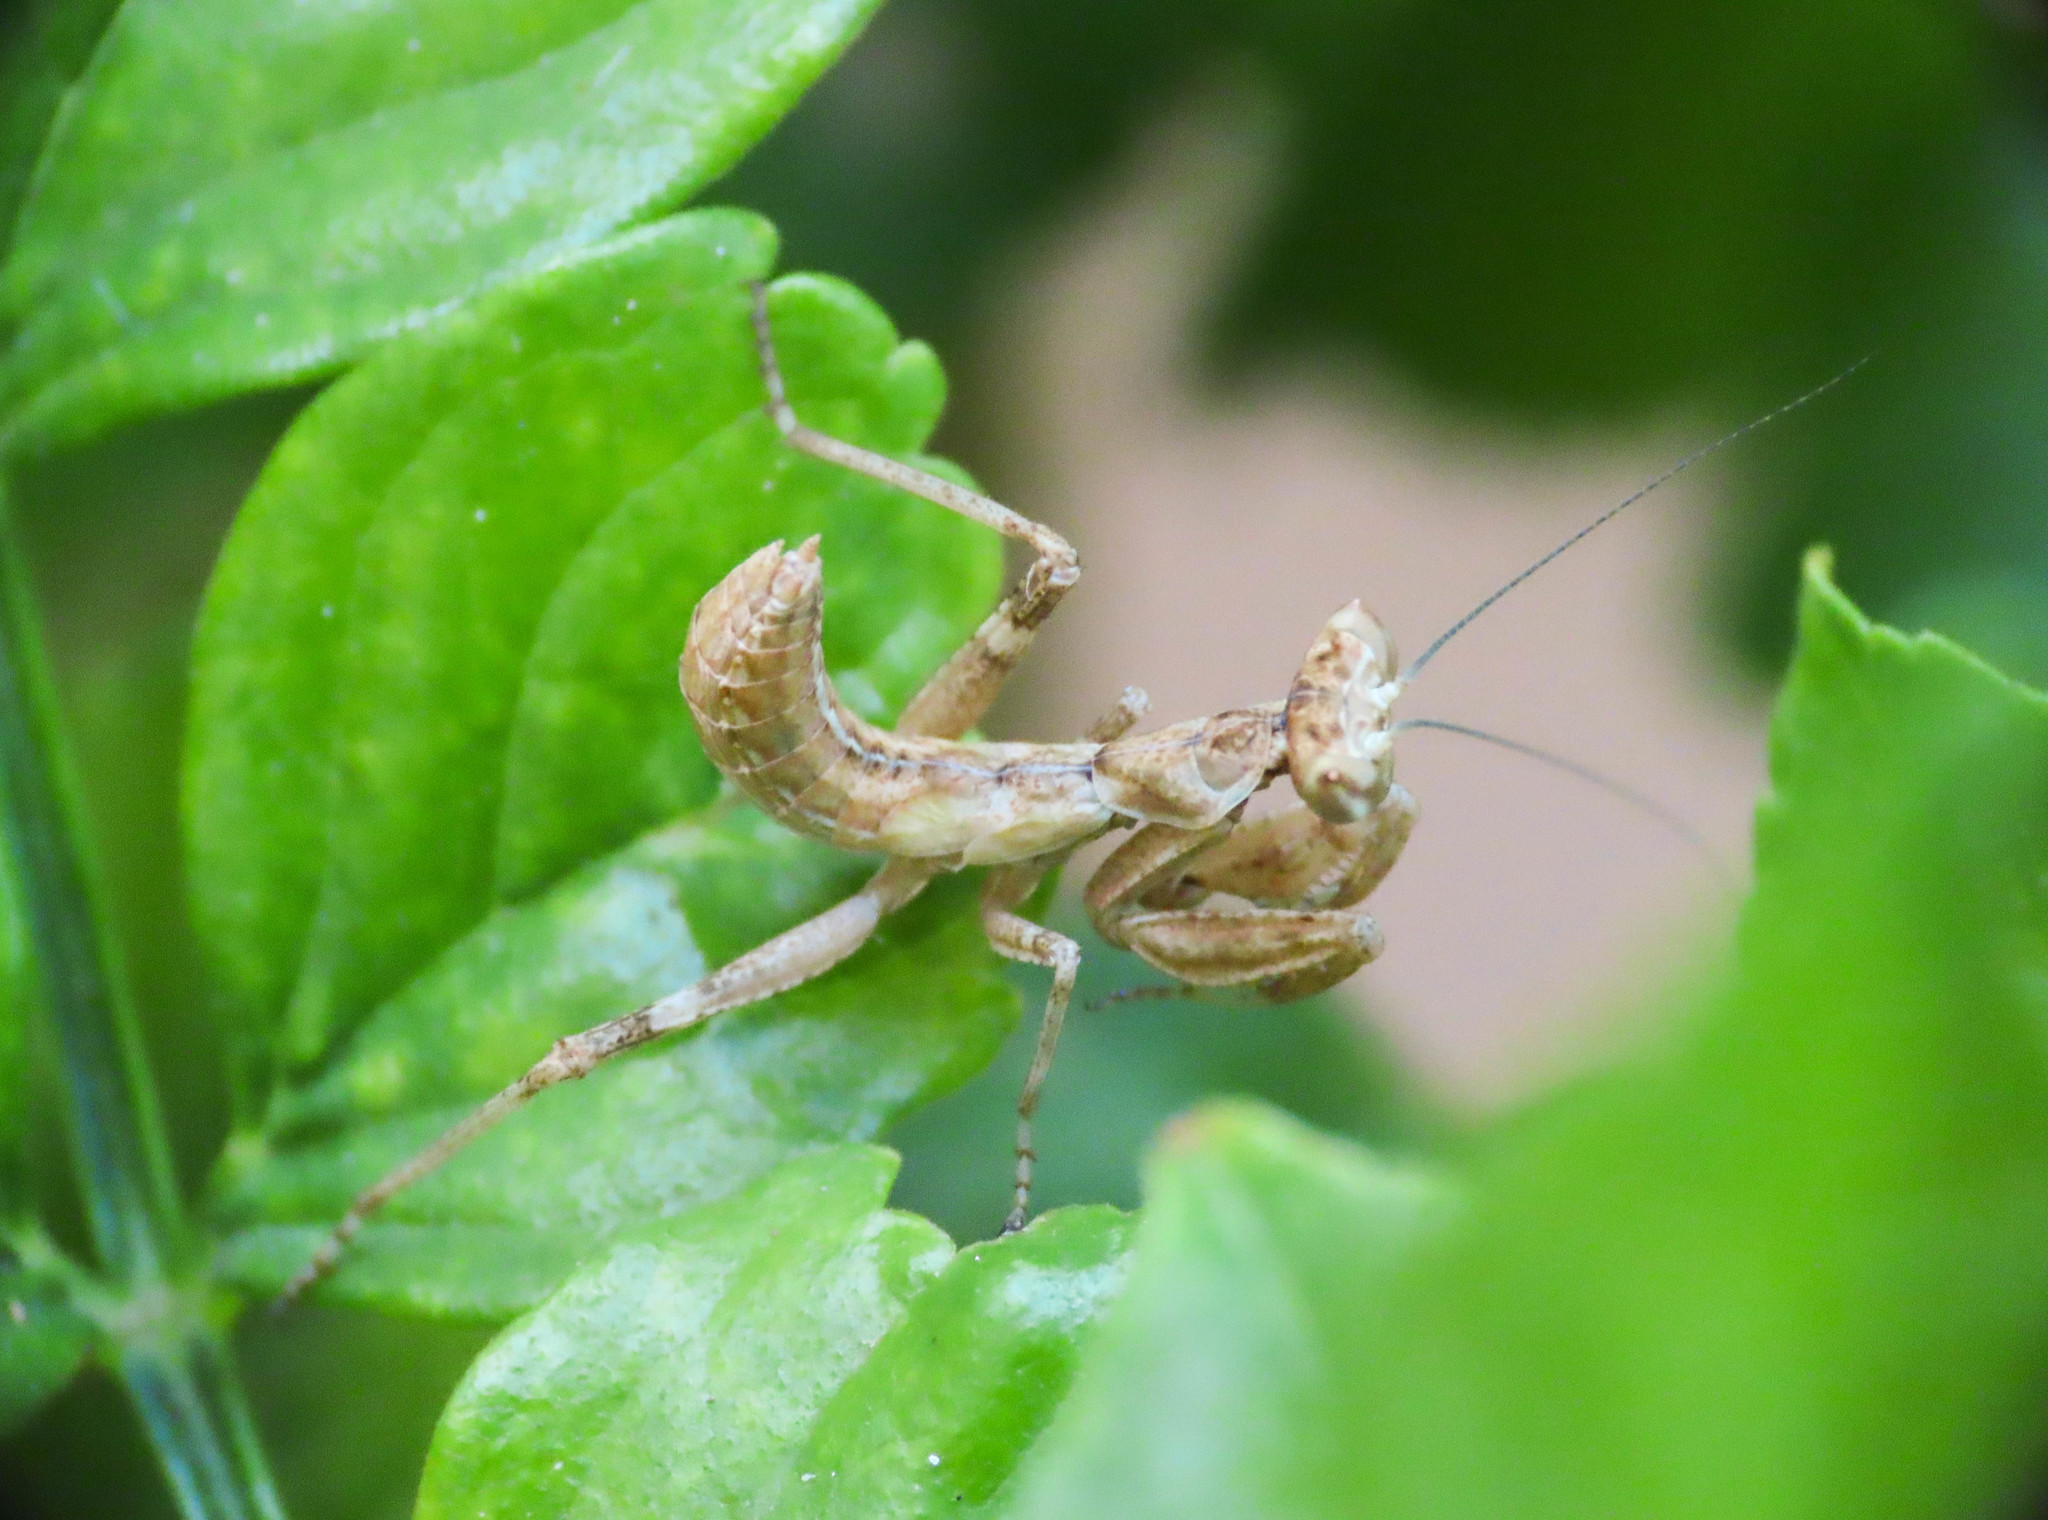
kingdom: Animalia
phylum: Arthropoda
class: Insecta
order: Mantodea
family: Amelidae
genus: Ameles
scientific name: Ameles spallanzania
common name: European dwarf mantis
